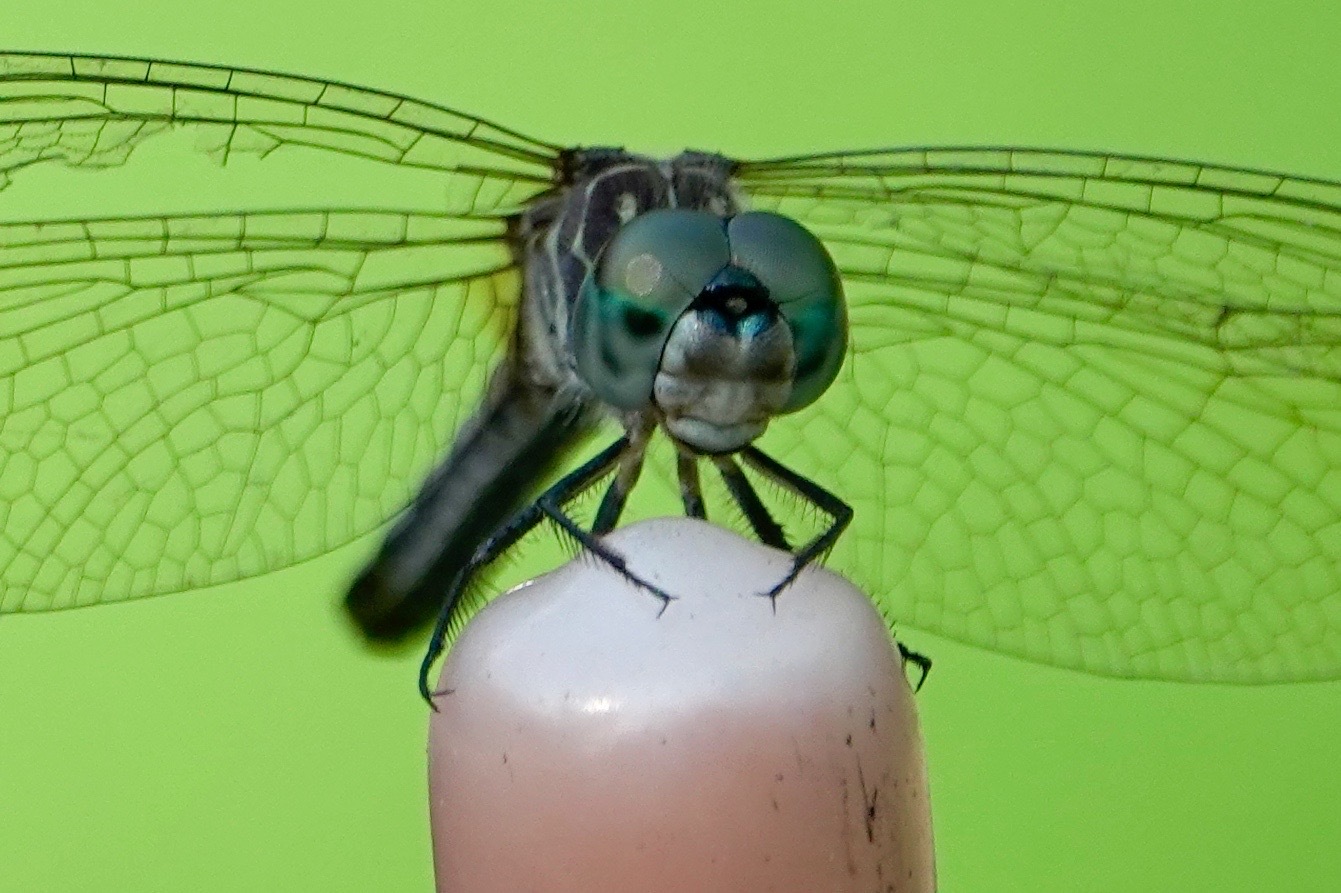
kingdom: Animalia
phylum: Arthropoda
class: Insecta
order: Odonata
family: Libellulidae
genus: Pachydiplax
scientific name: Pachydiplax longipennis
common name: Blue dasher
